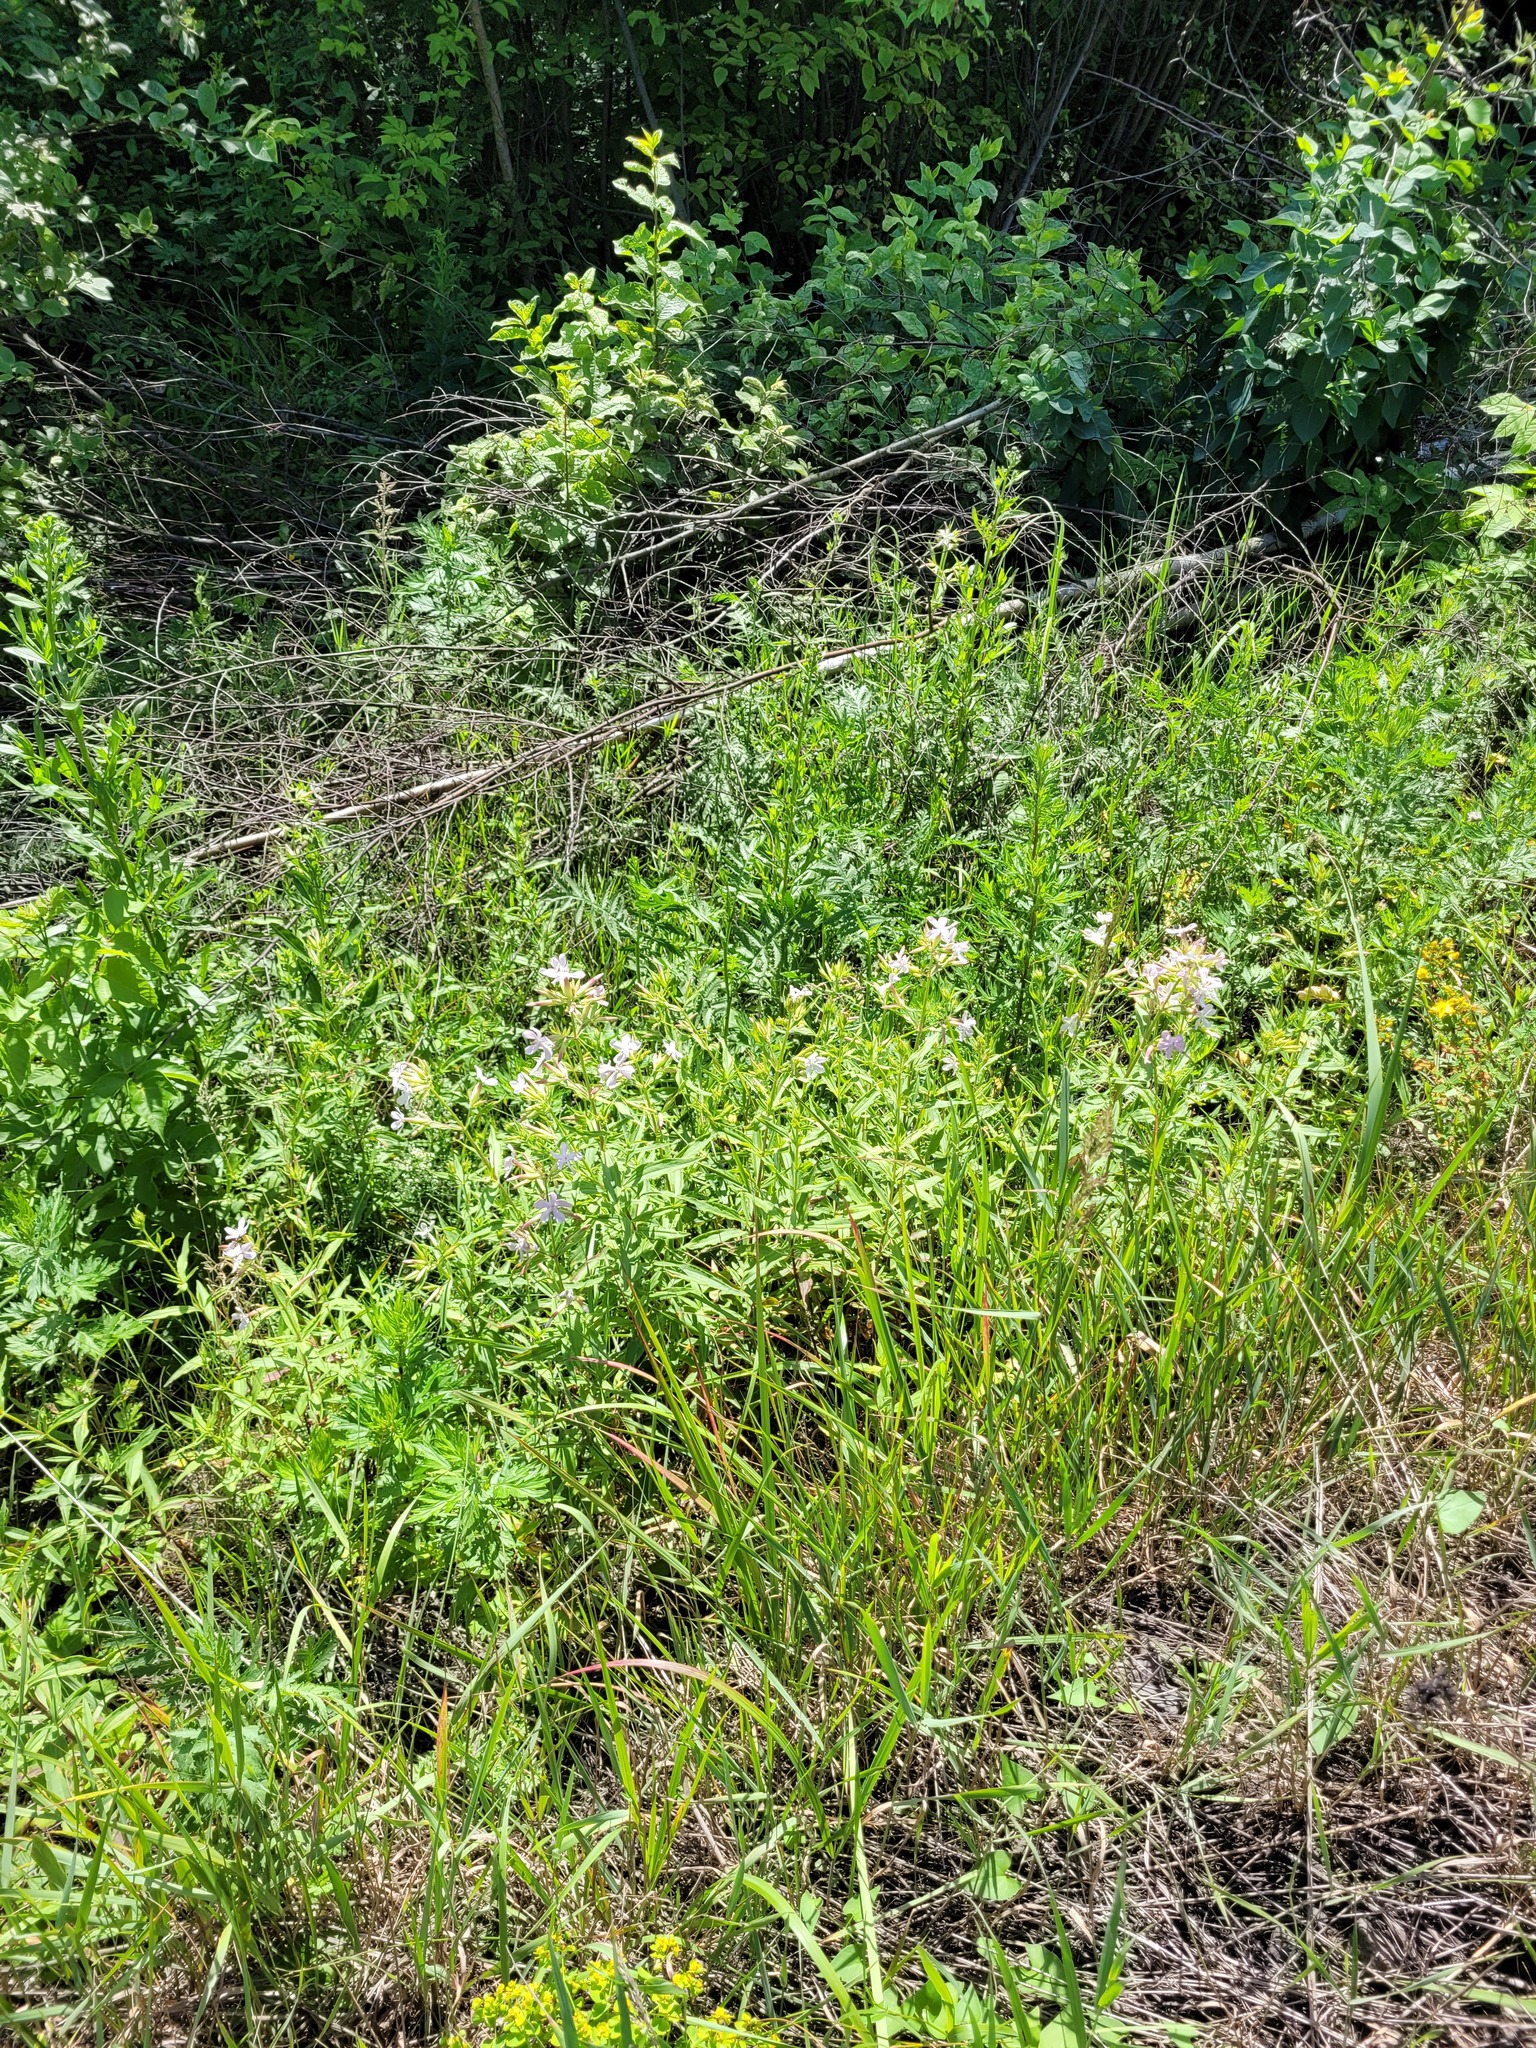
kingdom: Plantae
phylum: Tracheophyta
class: Magnoliopsida
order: Caryophyllales
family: Caryophyllaceae
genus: Saponaria
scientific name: Saponaria officinalis
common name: Soapwort
